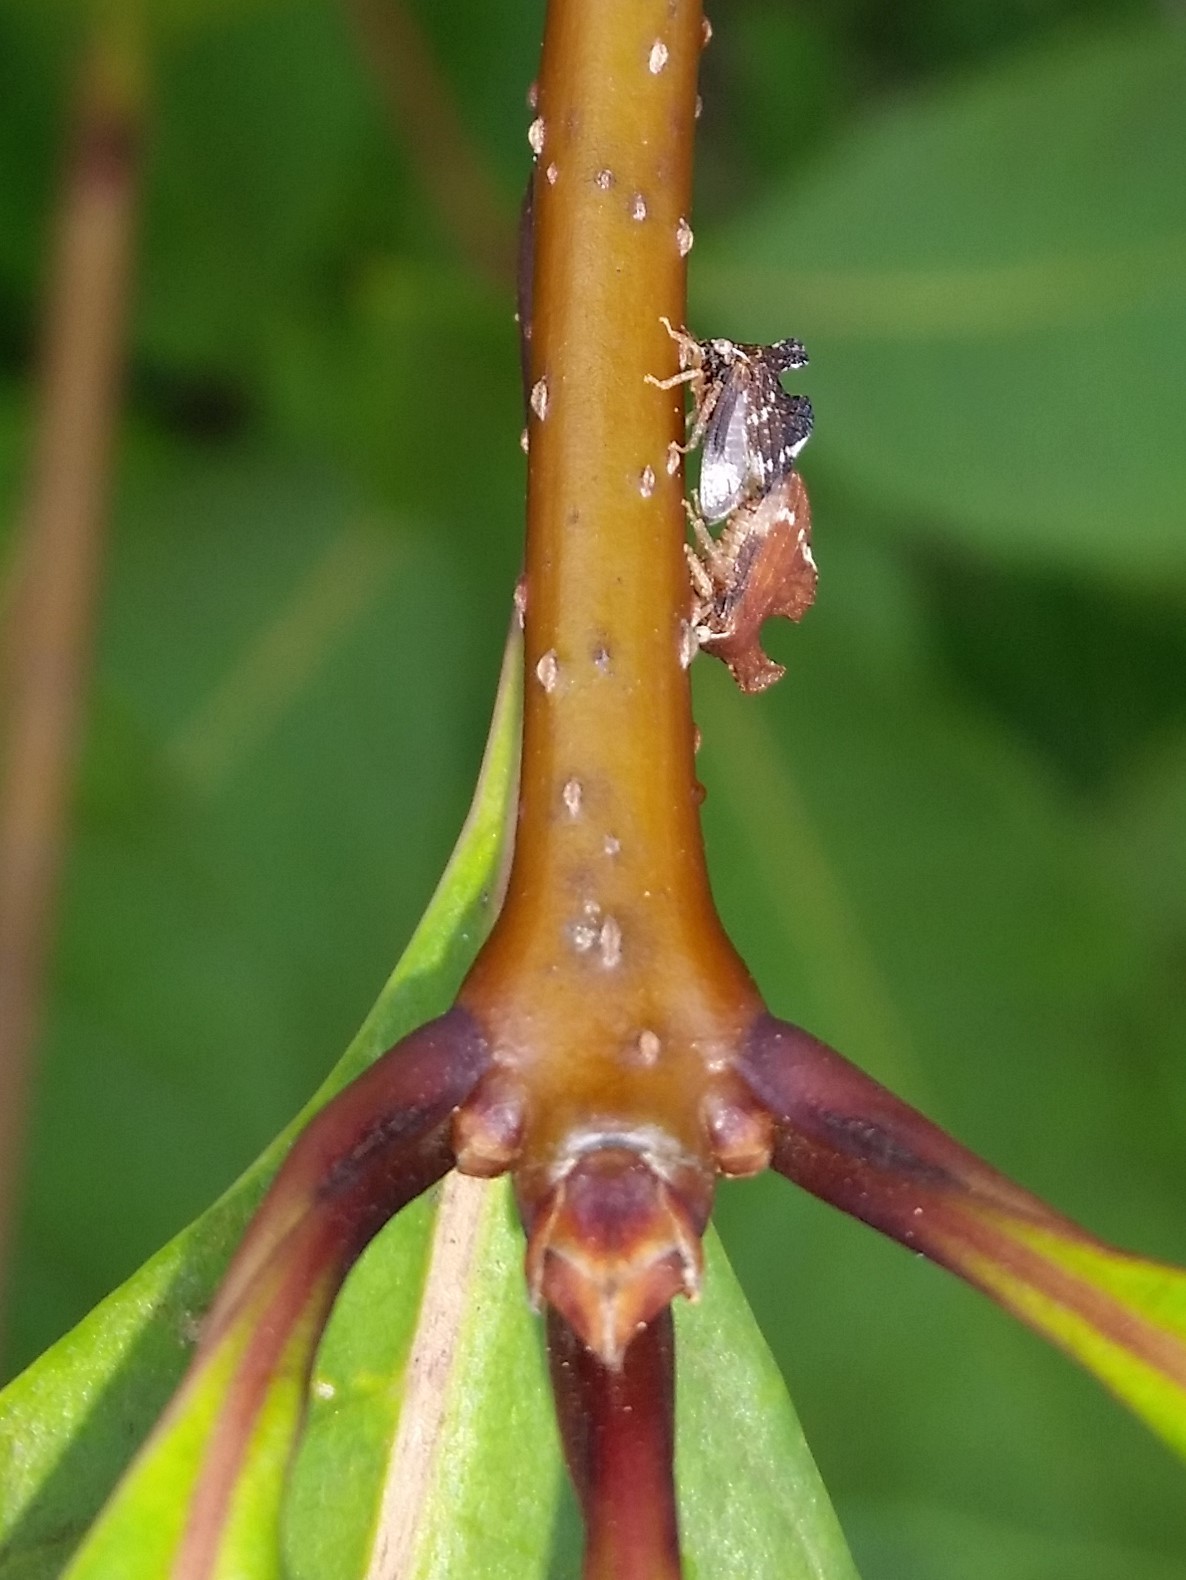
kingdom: Animalia
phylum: Arthropoda
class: Insecta
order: Hemiptera
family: Membracidae
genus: Entylia
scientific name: Entylia carinata
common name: Keeled treehopper
